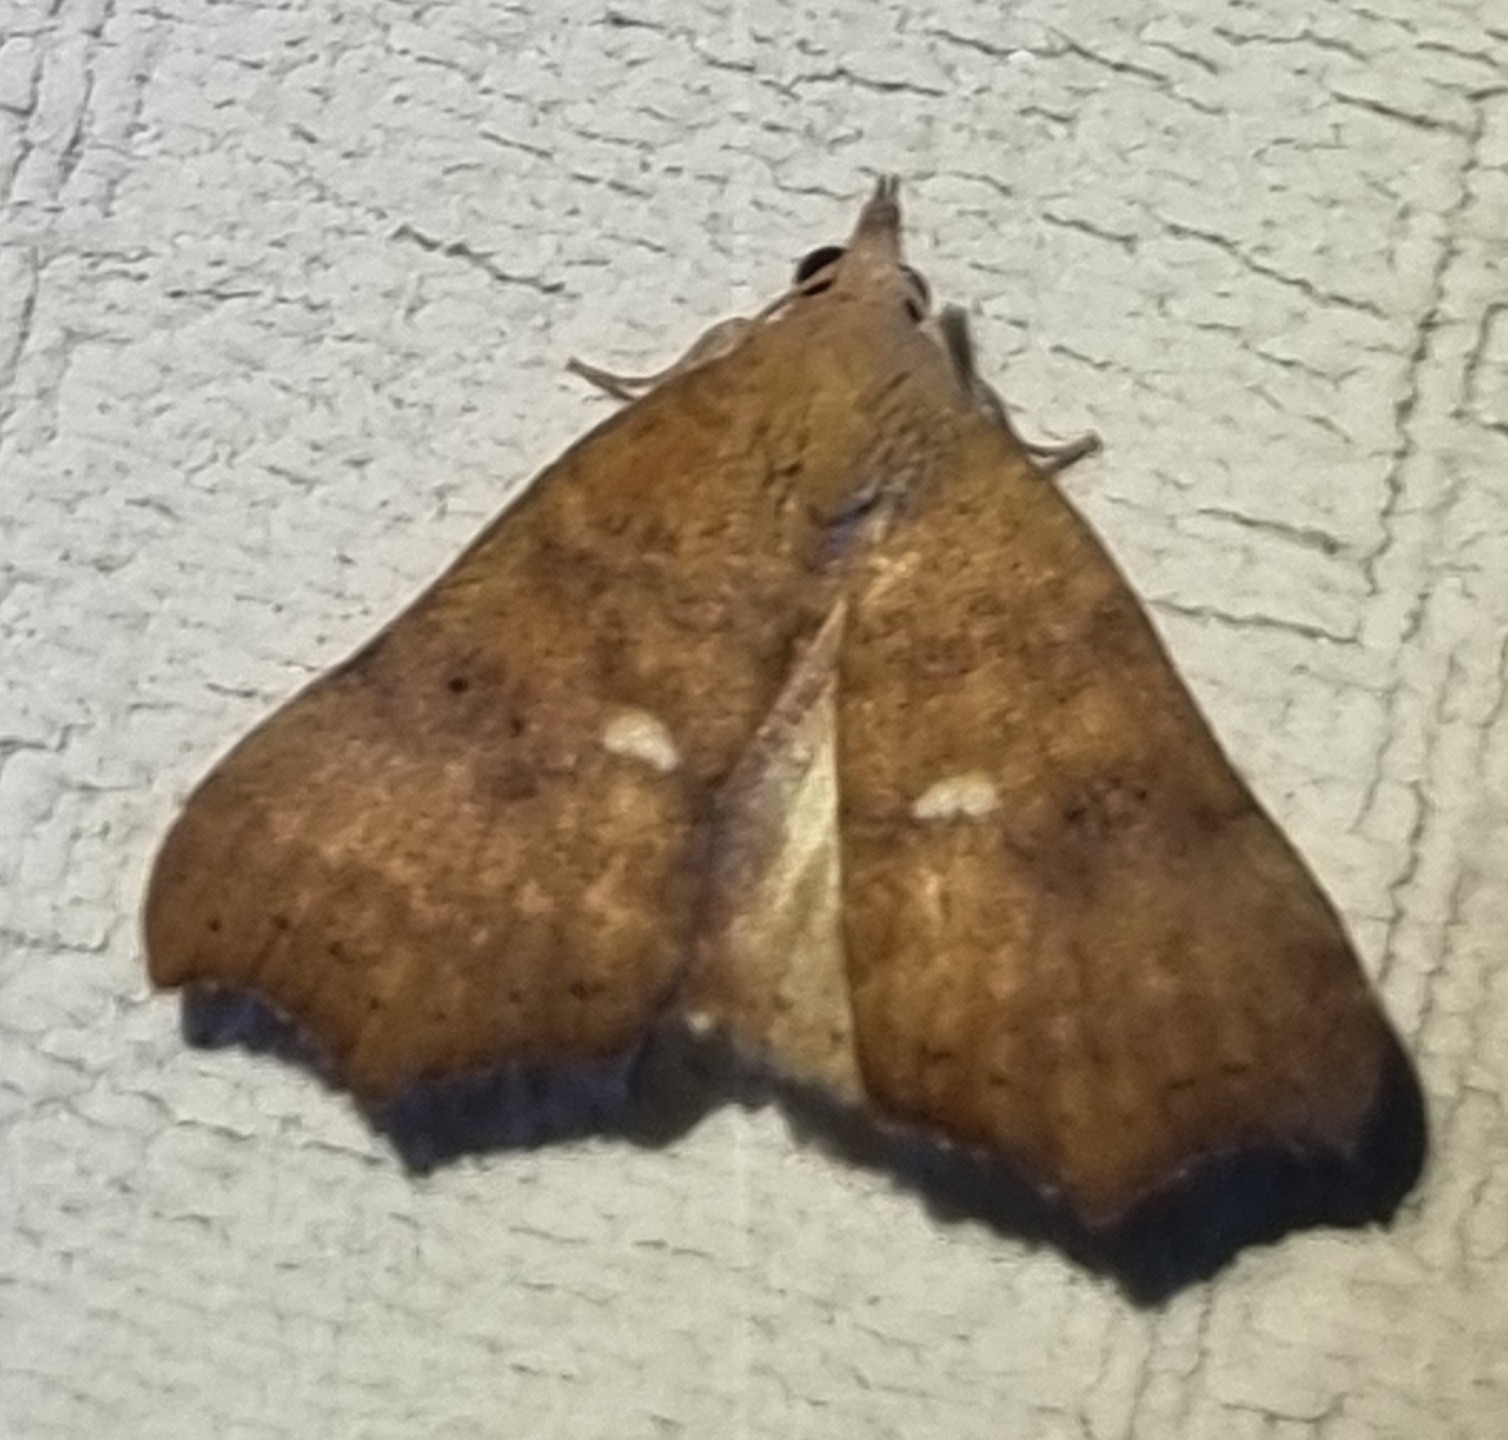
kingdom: Animalia
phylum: Arthropoda
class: Insecta
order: Lepidoptera
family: Erebidae
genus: Axiocteta
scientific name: Axiocteta oenoplex
